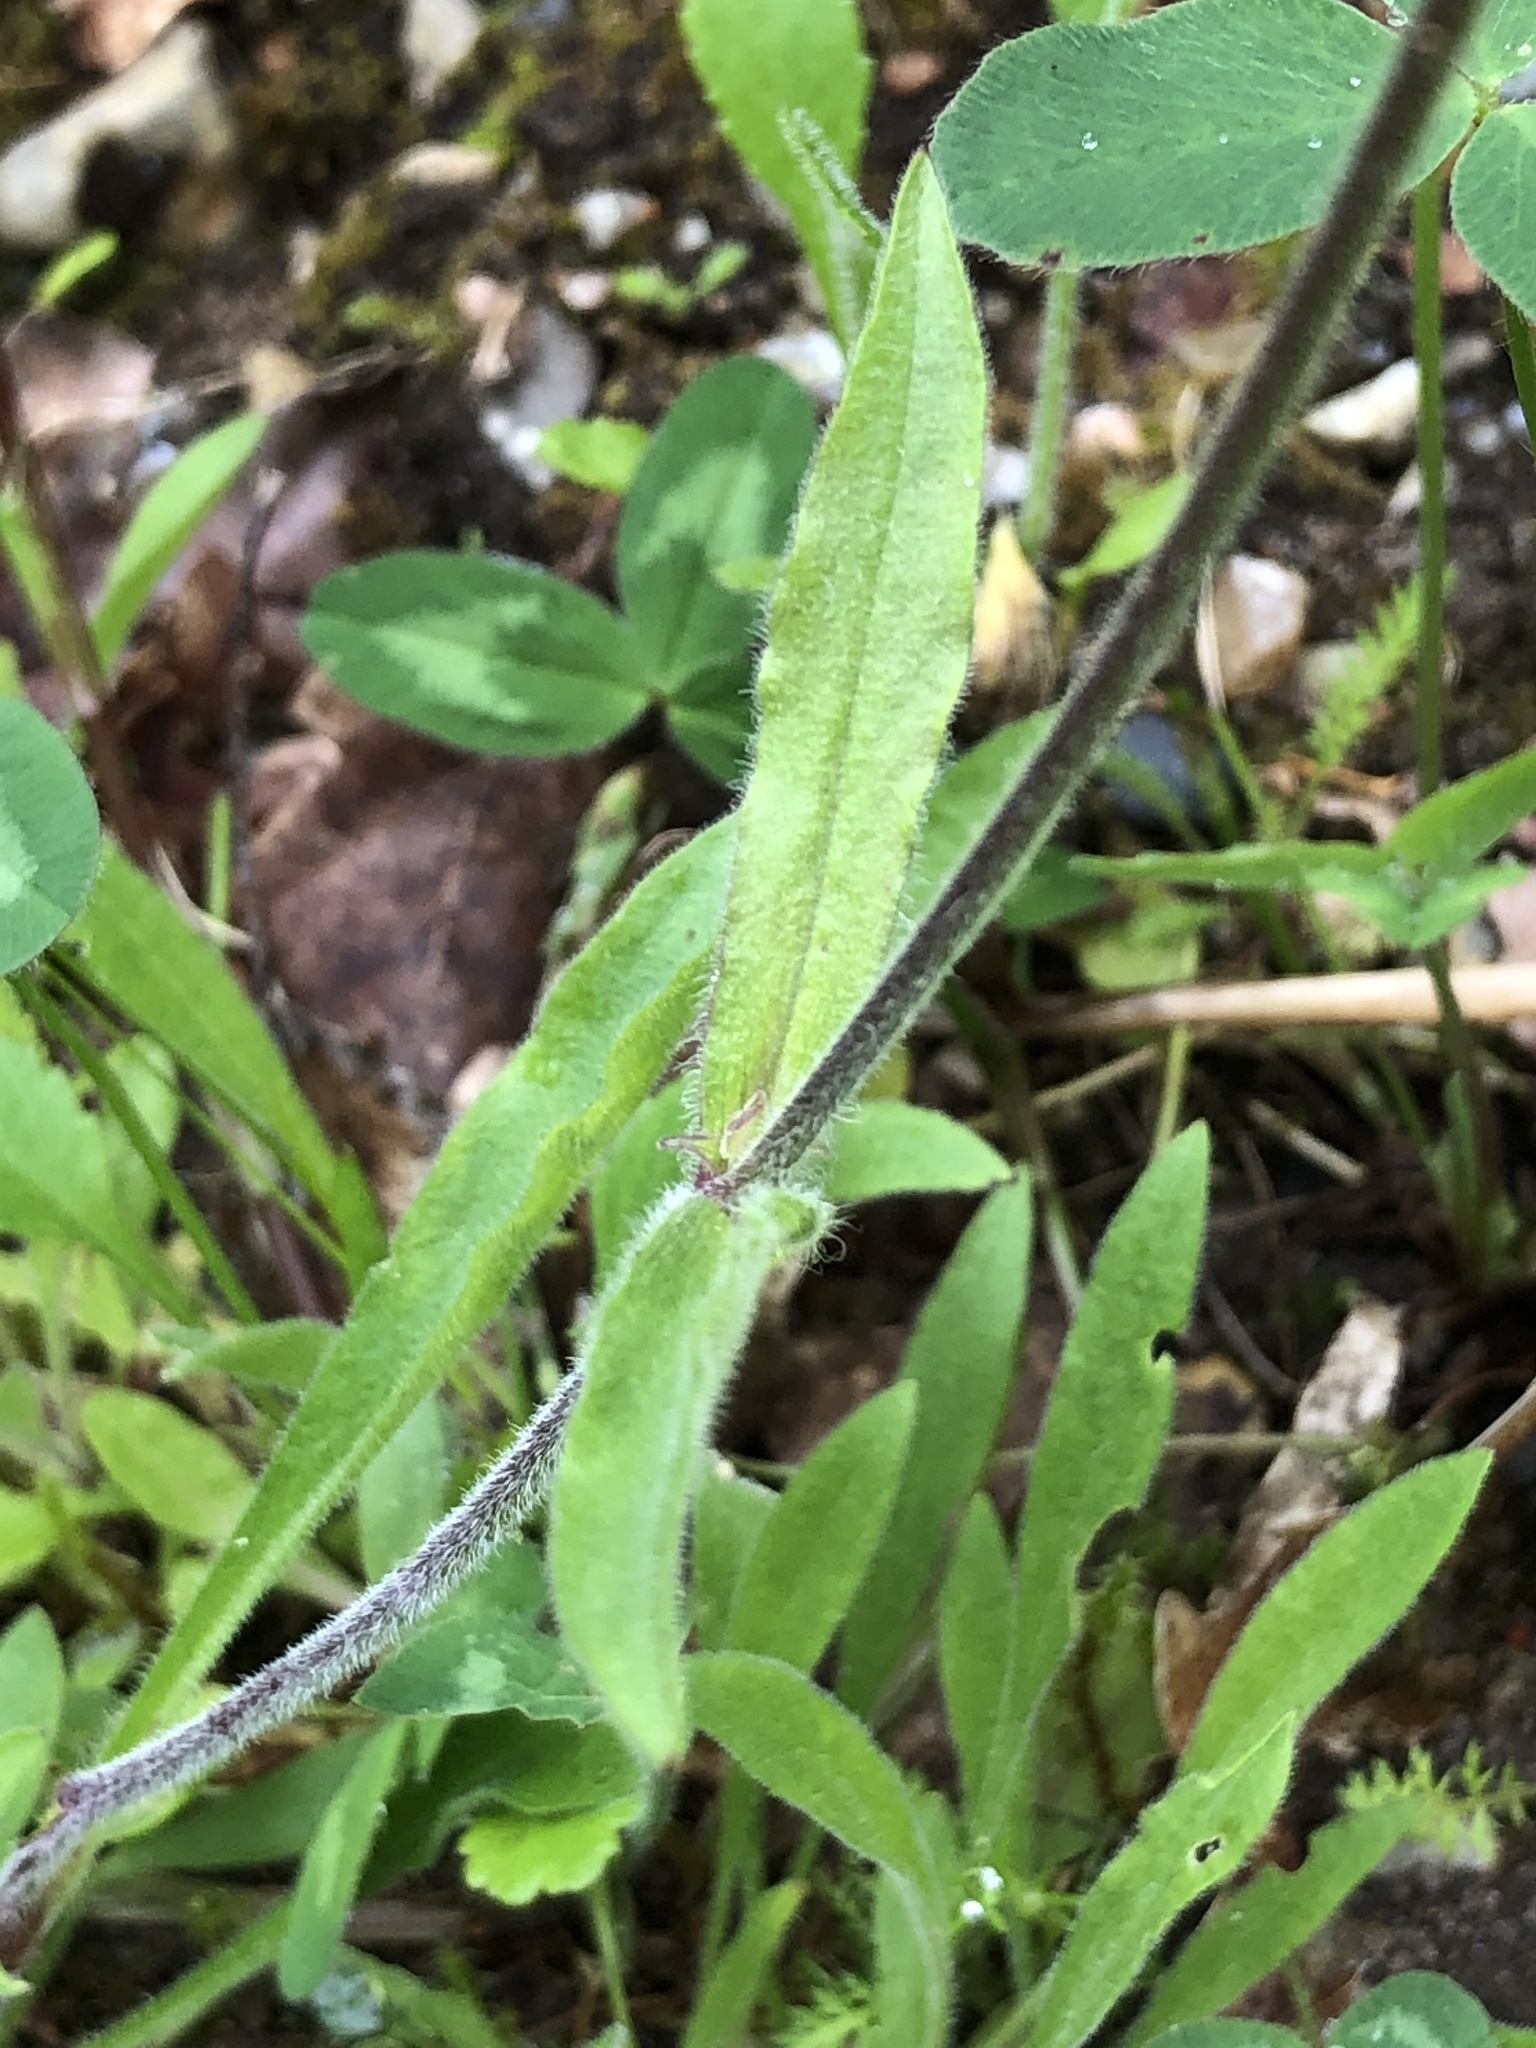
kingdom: Plantae
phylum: Tracheophyta
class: Magnoliopsida
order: Caryophyllales
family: Caryophyllaceae
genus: Silene
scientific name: Silene nutans
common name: Nottingham catchfly
